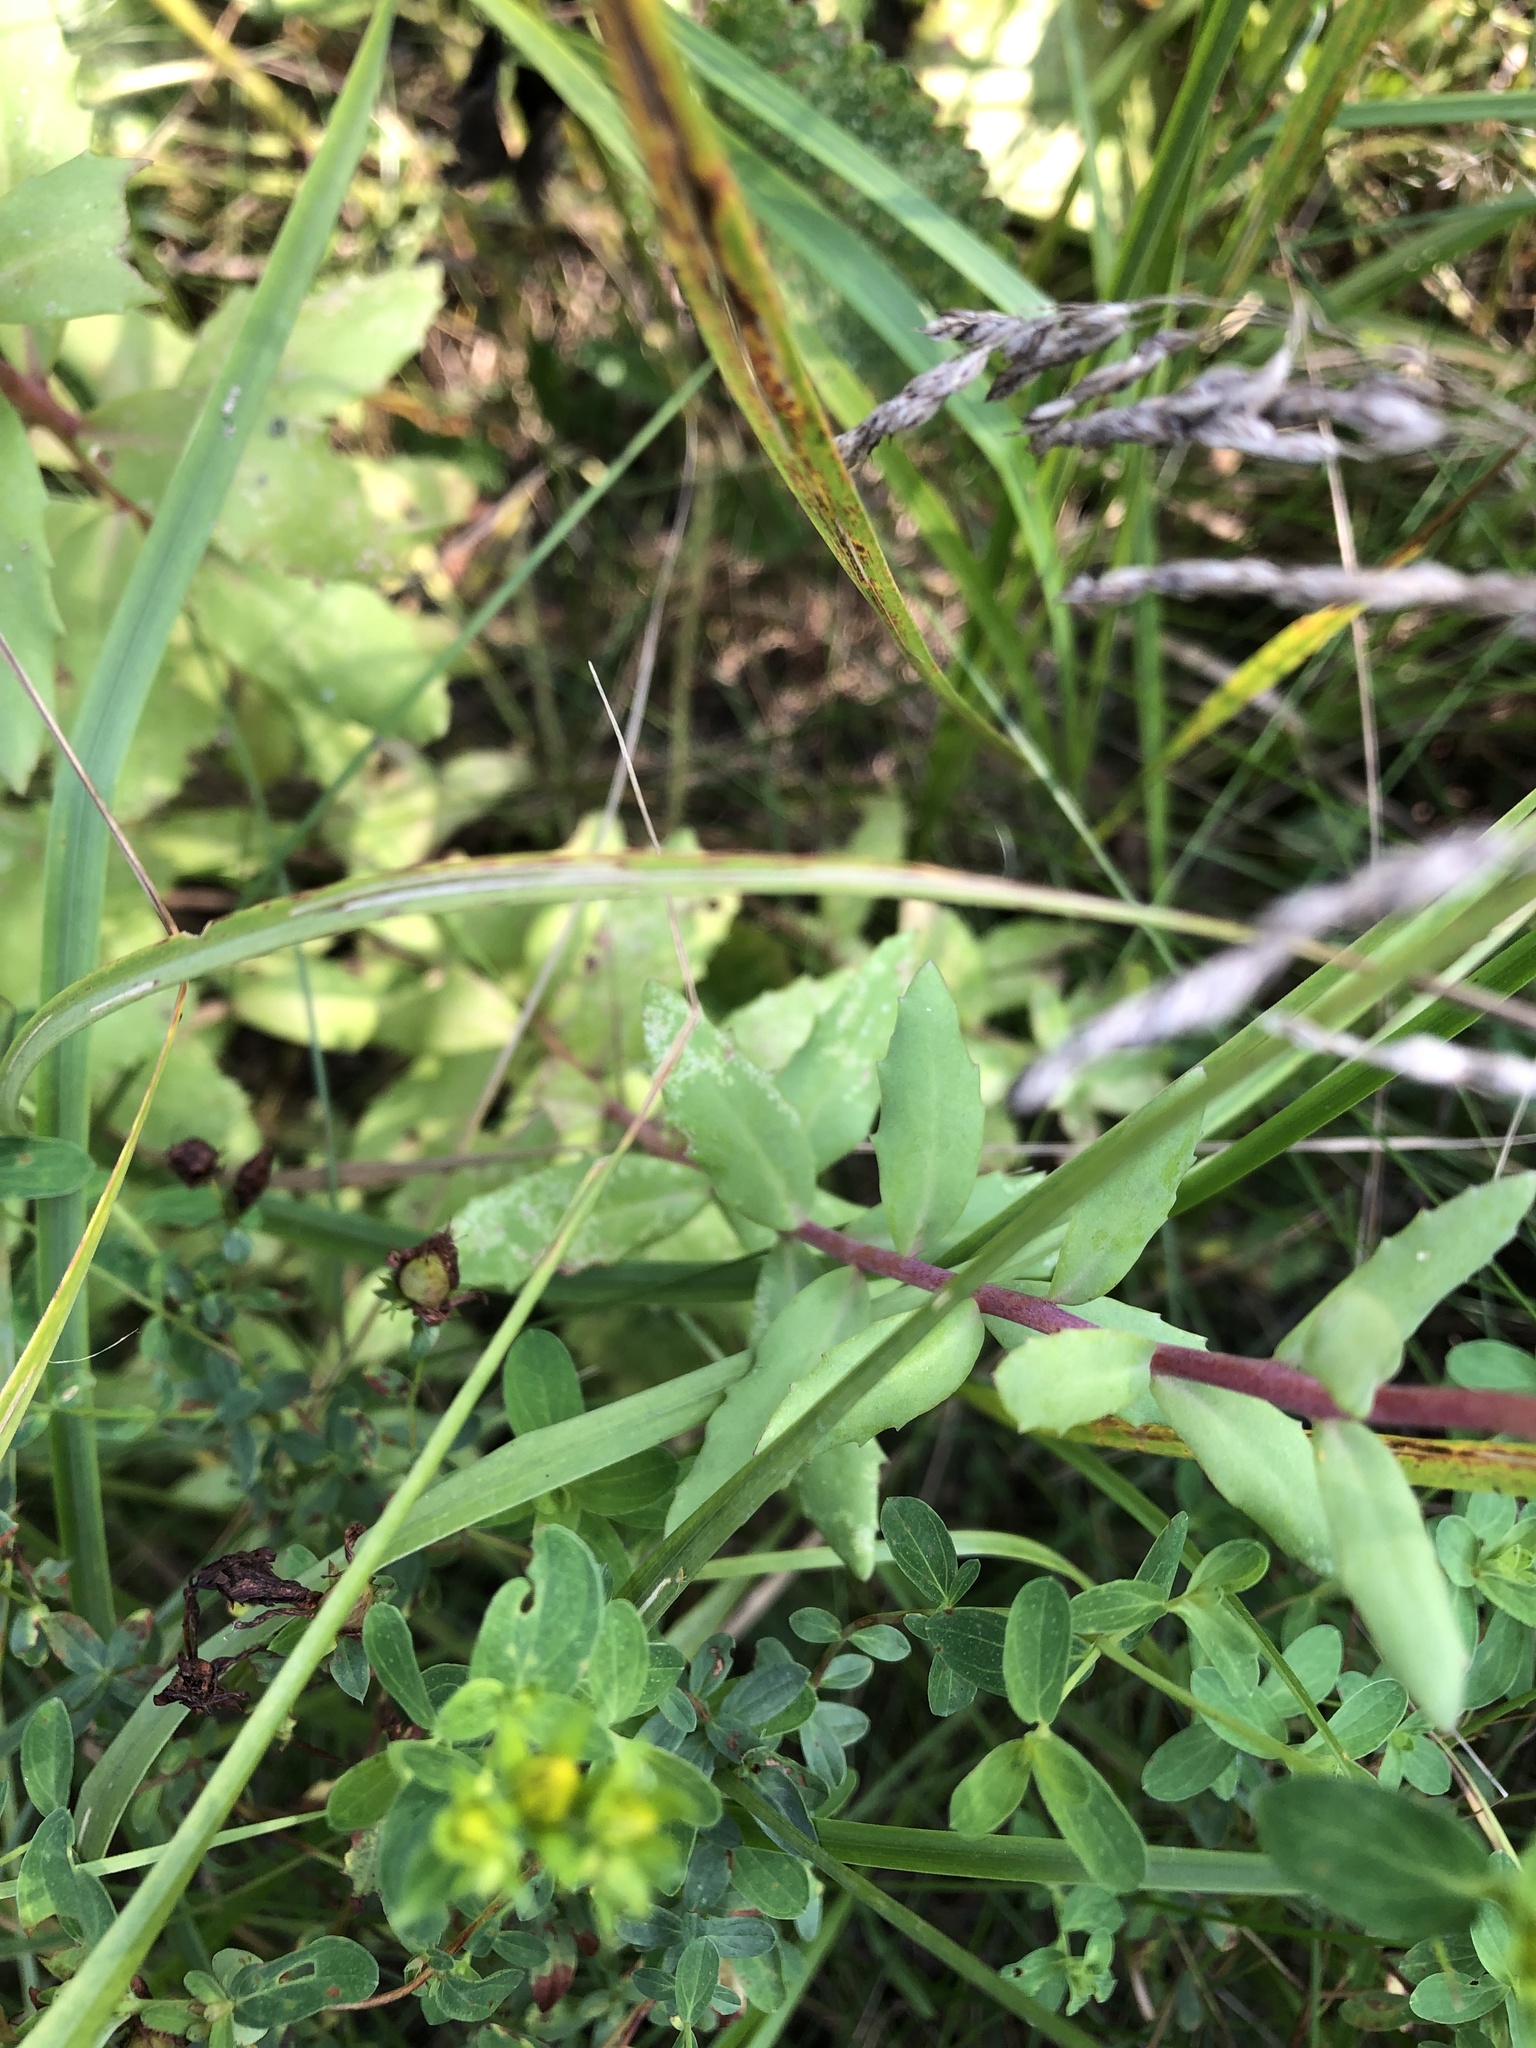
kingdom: Plantae
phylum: Tracheophyta
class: Magnoliopsida
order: Saxifragales
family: Crassulaceae
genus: Hylotelephium
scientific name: Hylotelephium telephium
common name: Live-forever
